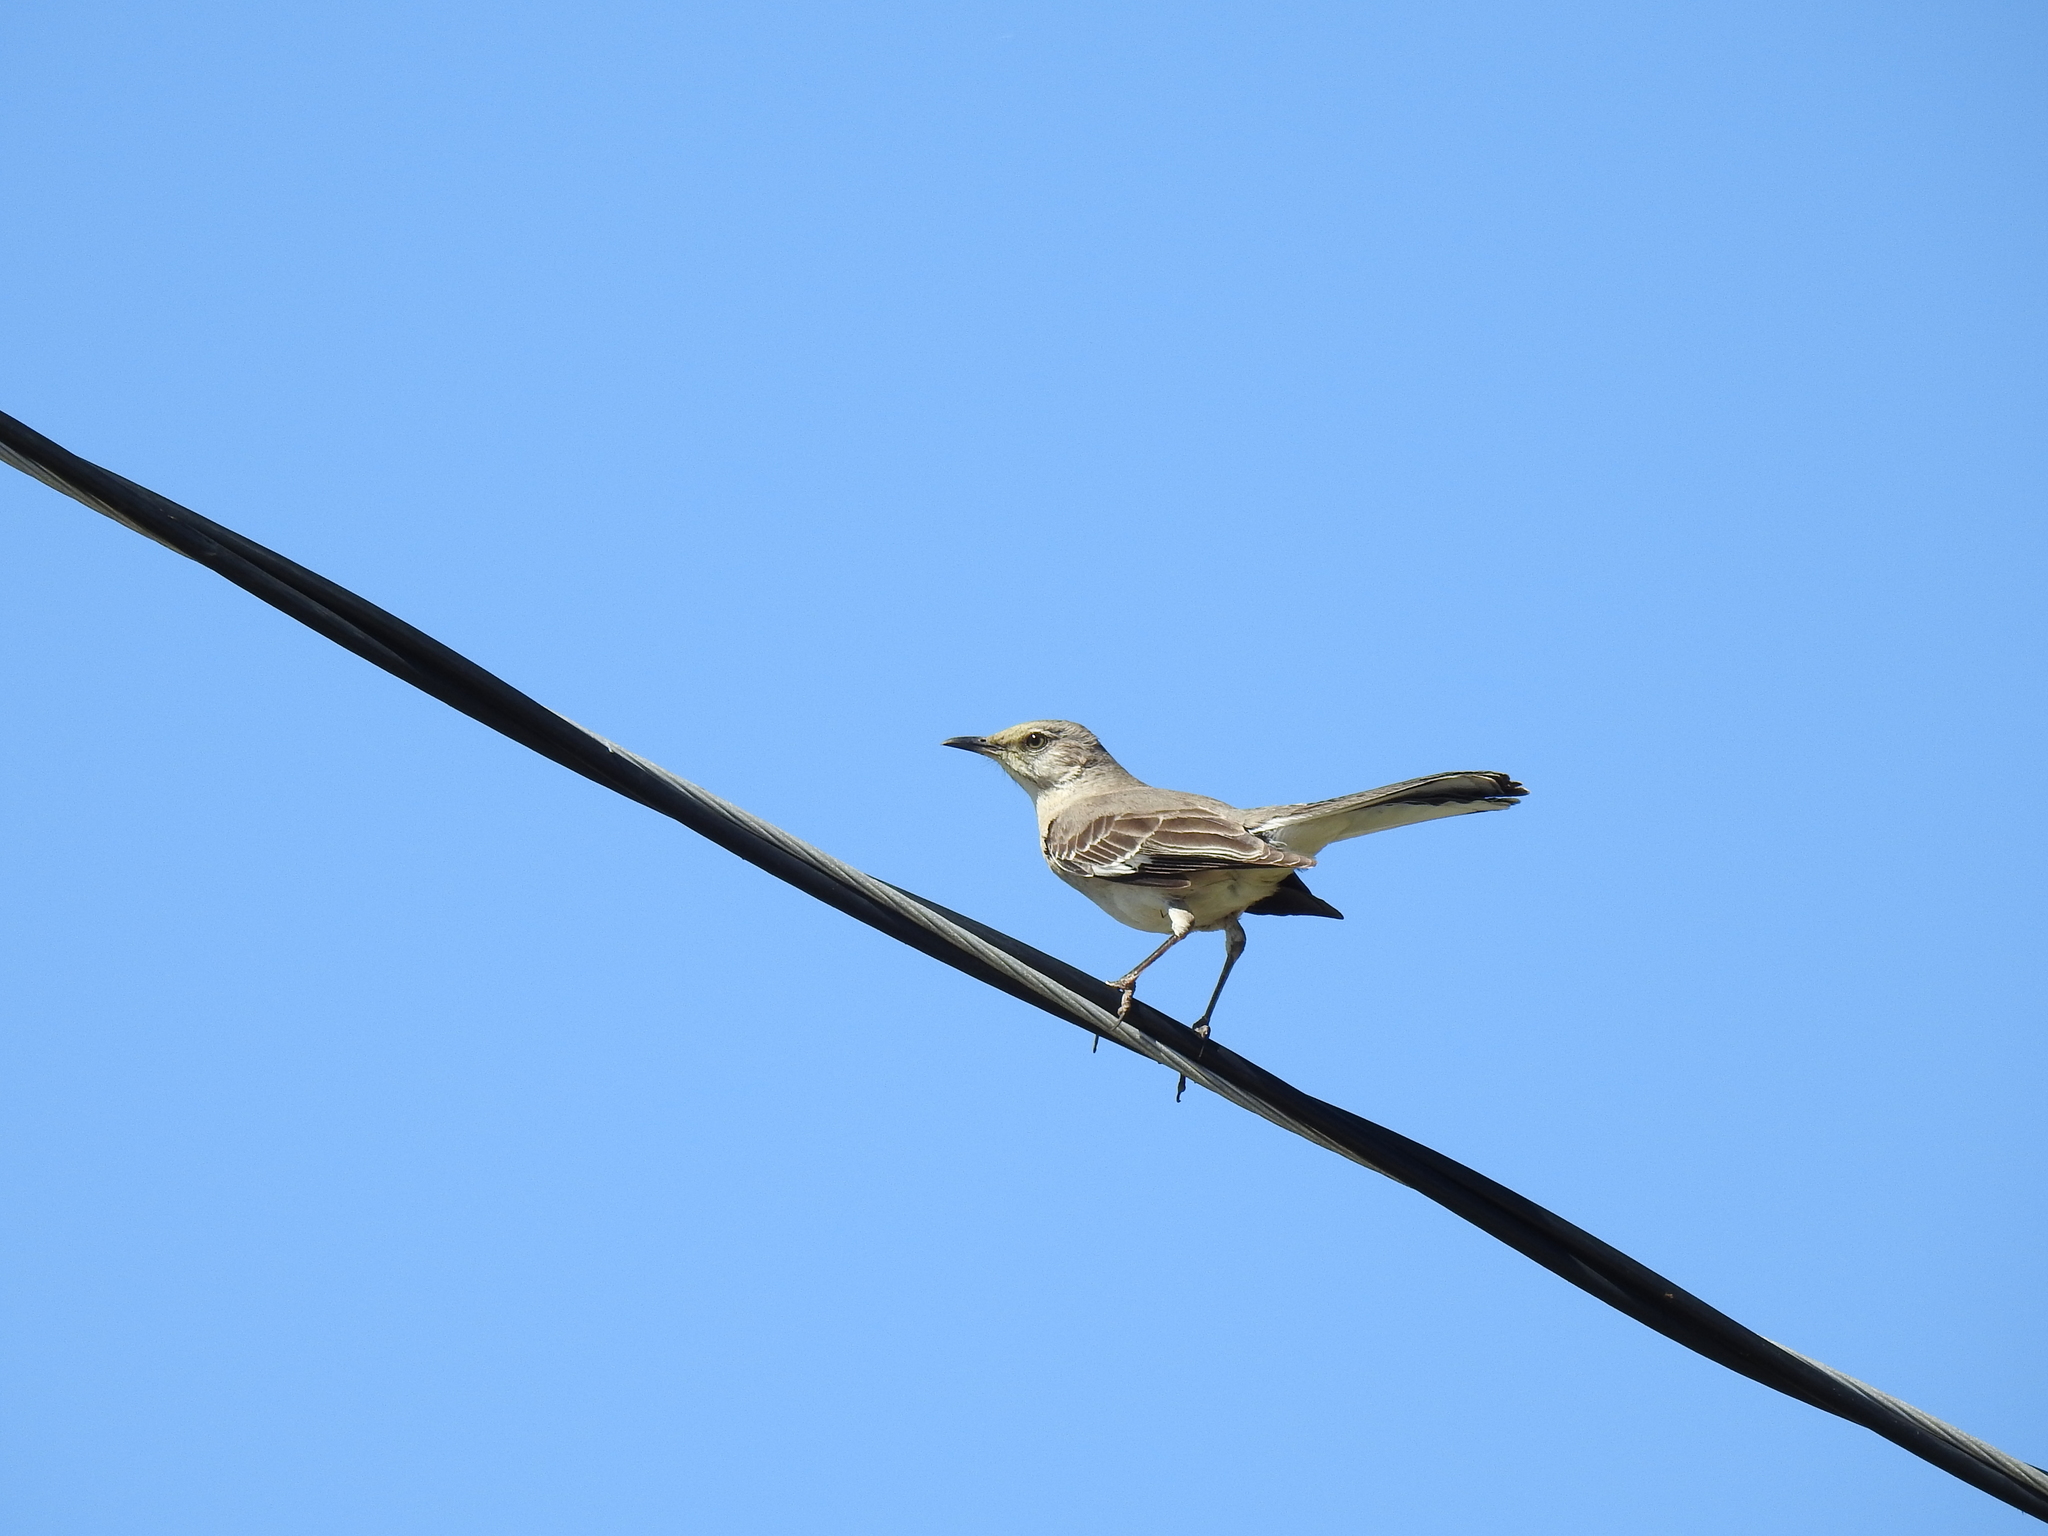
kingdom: Animalia
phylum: Chordata
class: Aves
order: Passeriformes
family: Mimidae
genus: Mimus
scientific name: Mimus polyglottos
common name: Northern mockingbird
